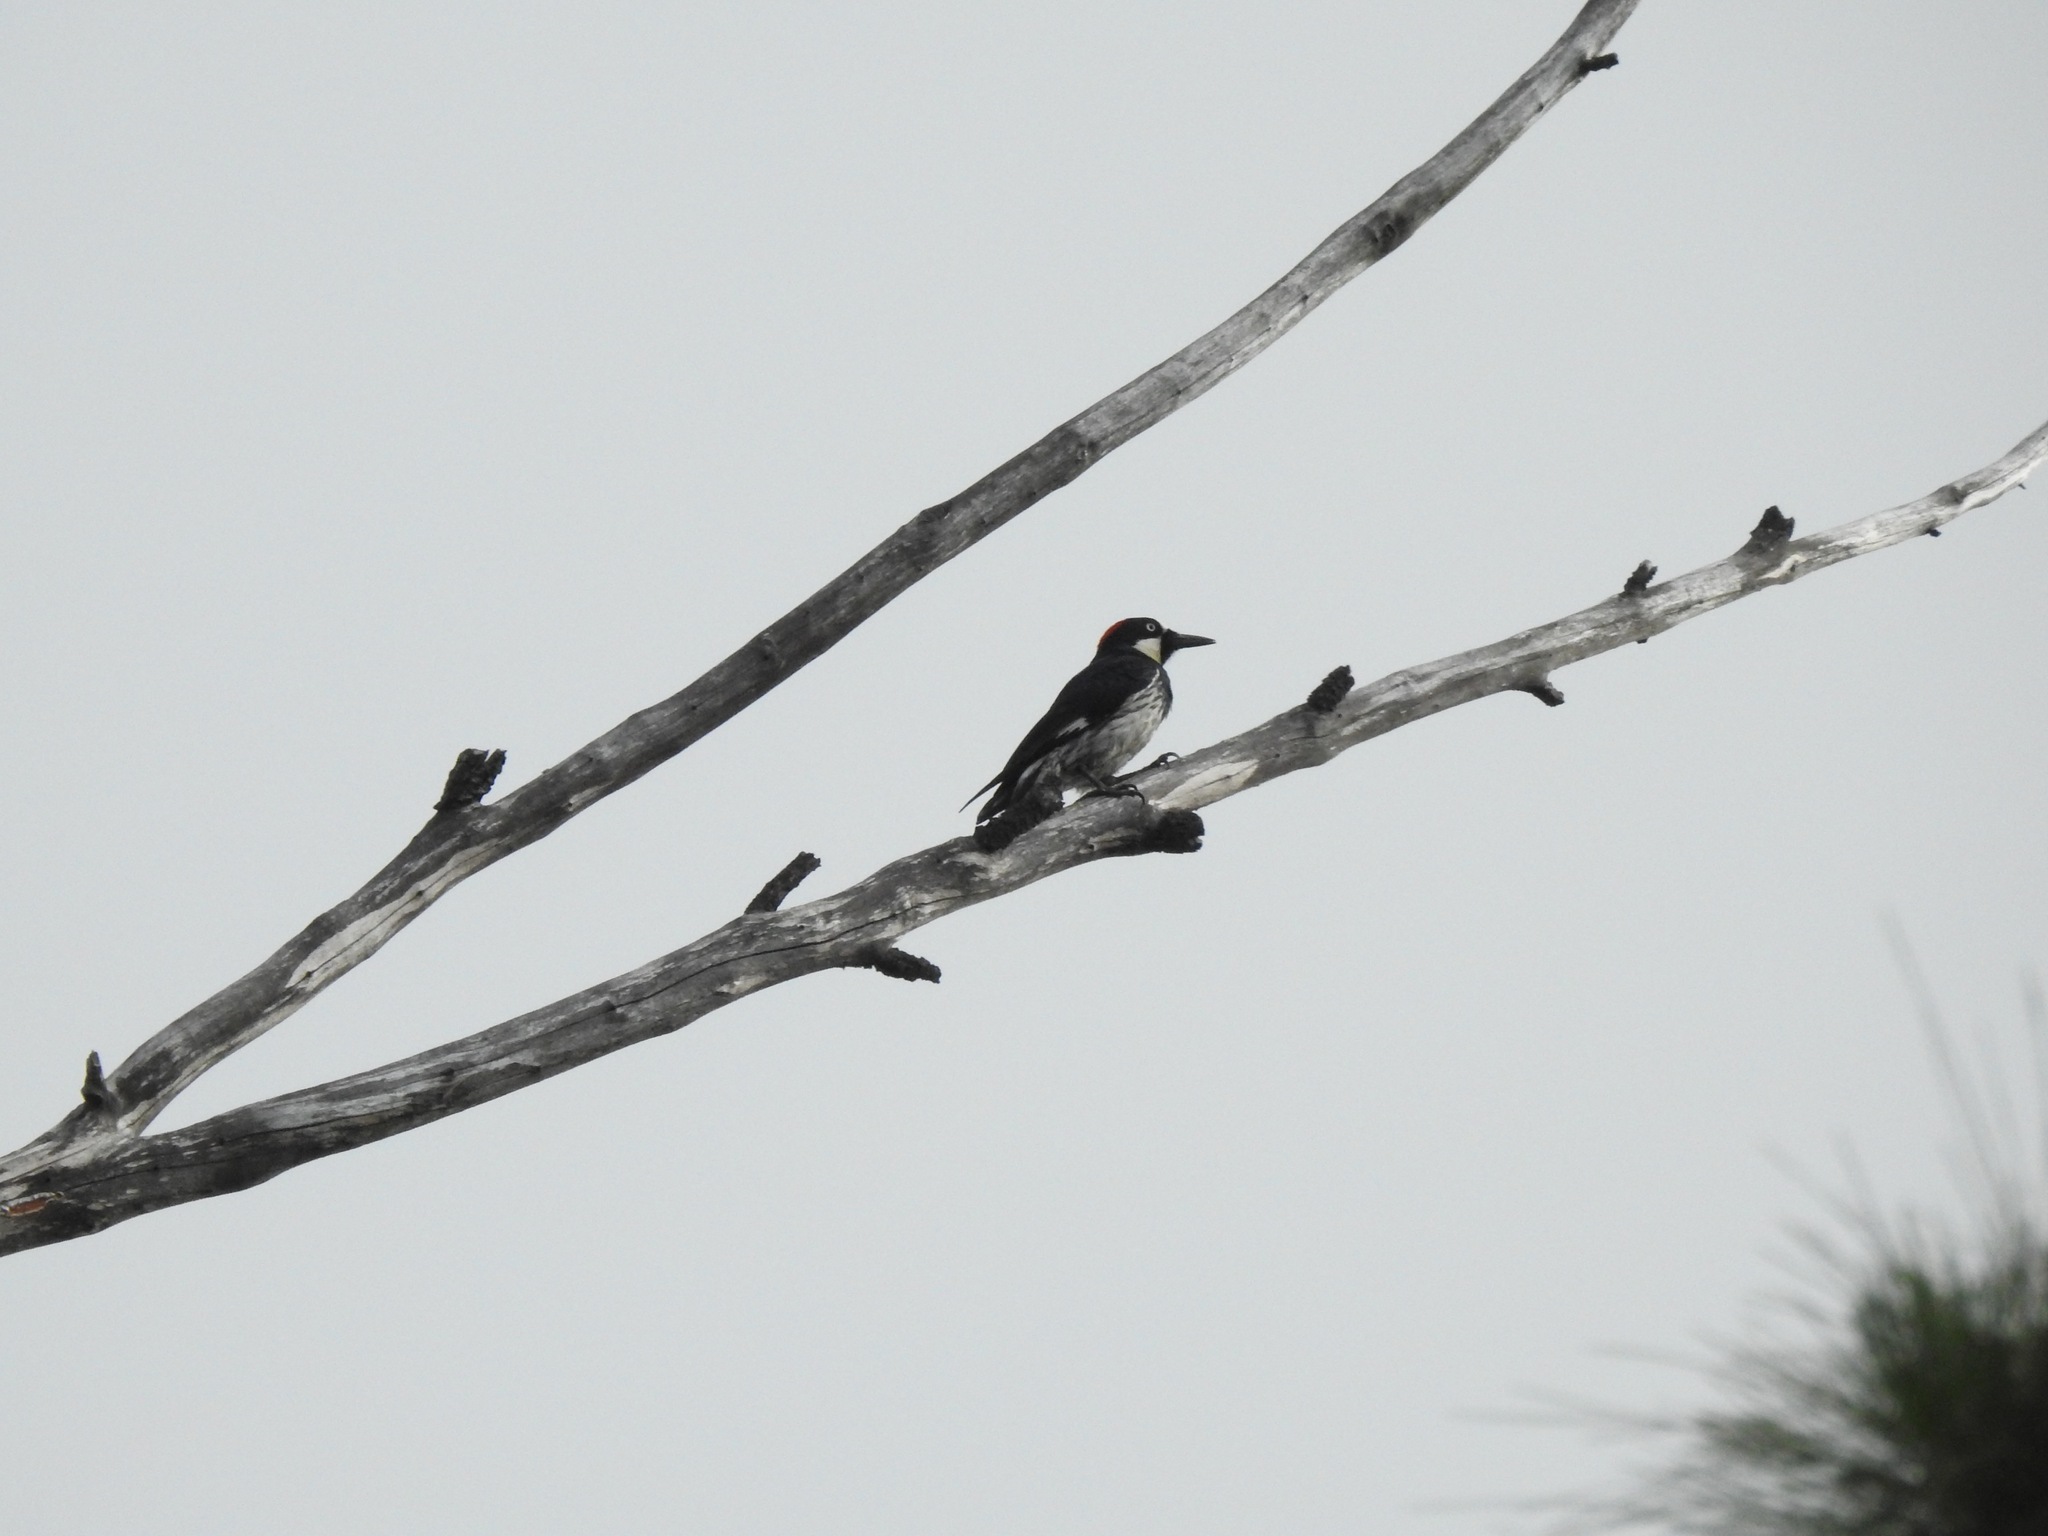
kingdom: Animalia
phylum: Chordata
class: Aves
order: Piciformes
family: Picidae
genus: Melanerpes
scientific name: Melanerpes formicivorus
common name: Acorn woodpecker
